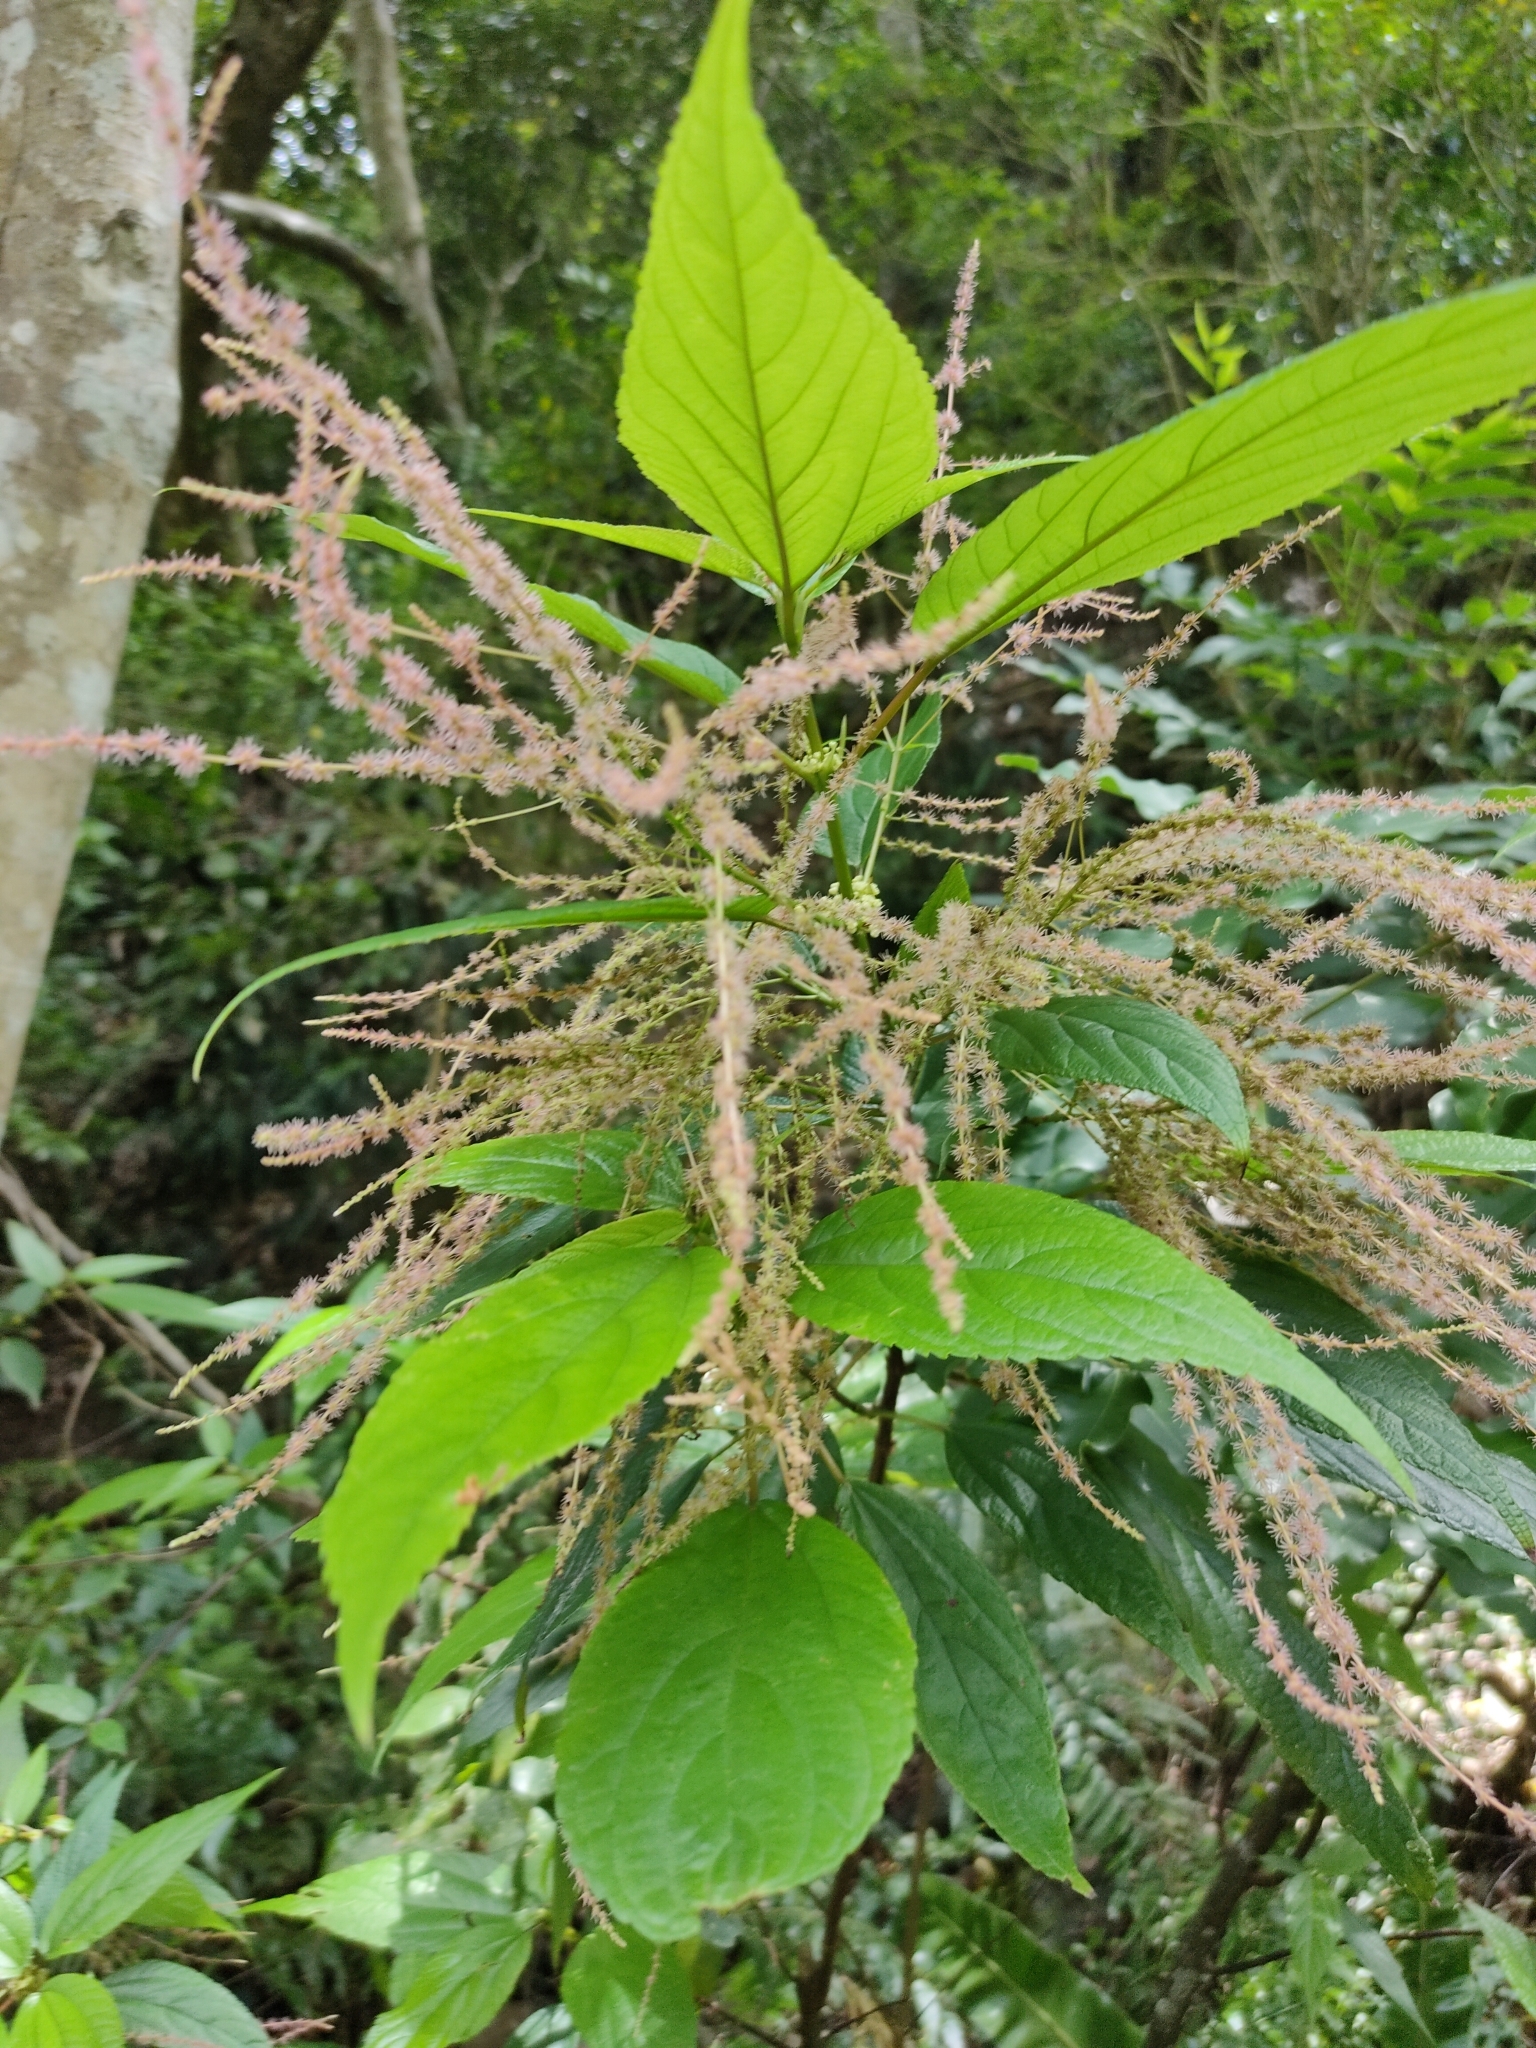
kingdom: Plantae
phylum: Tracheophyta
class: Magnoliopsida
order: Rosales
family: Urticaceae
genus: Boehmeria
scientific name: Boehmeria zollingeriana
